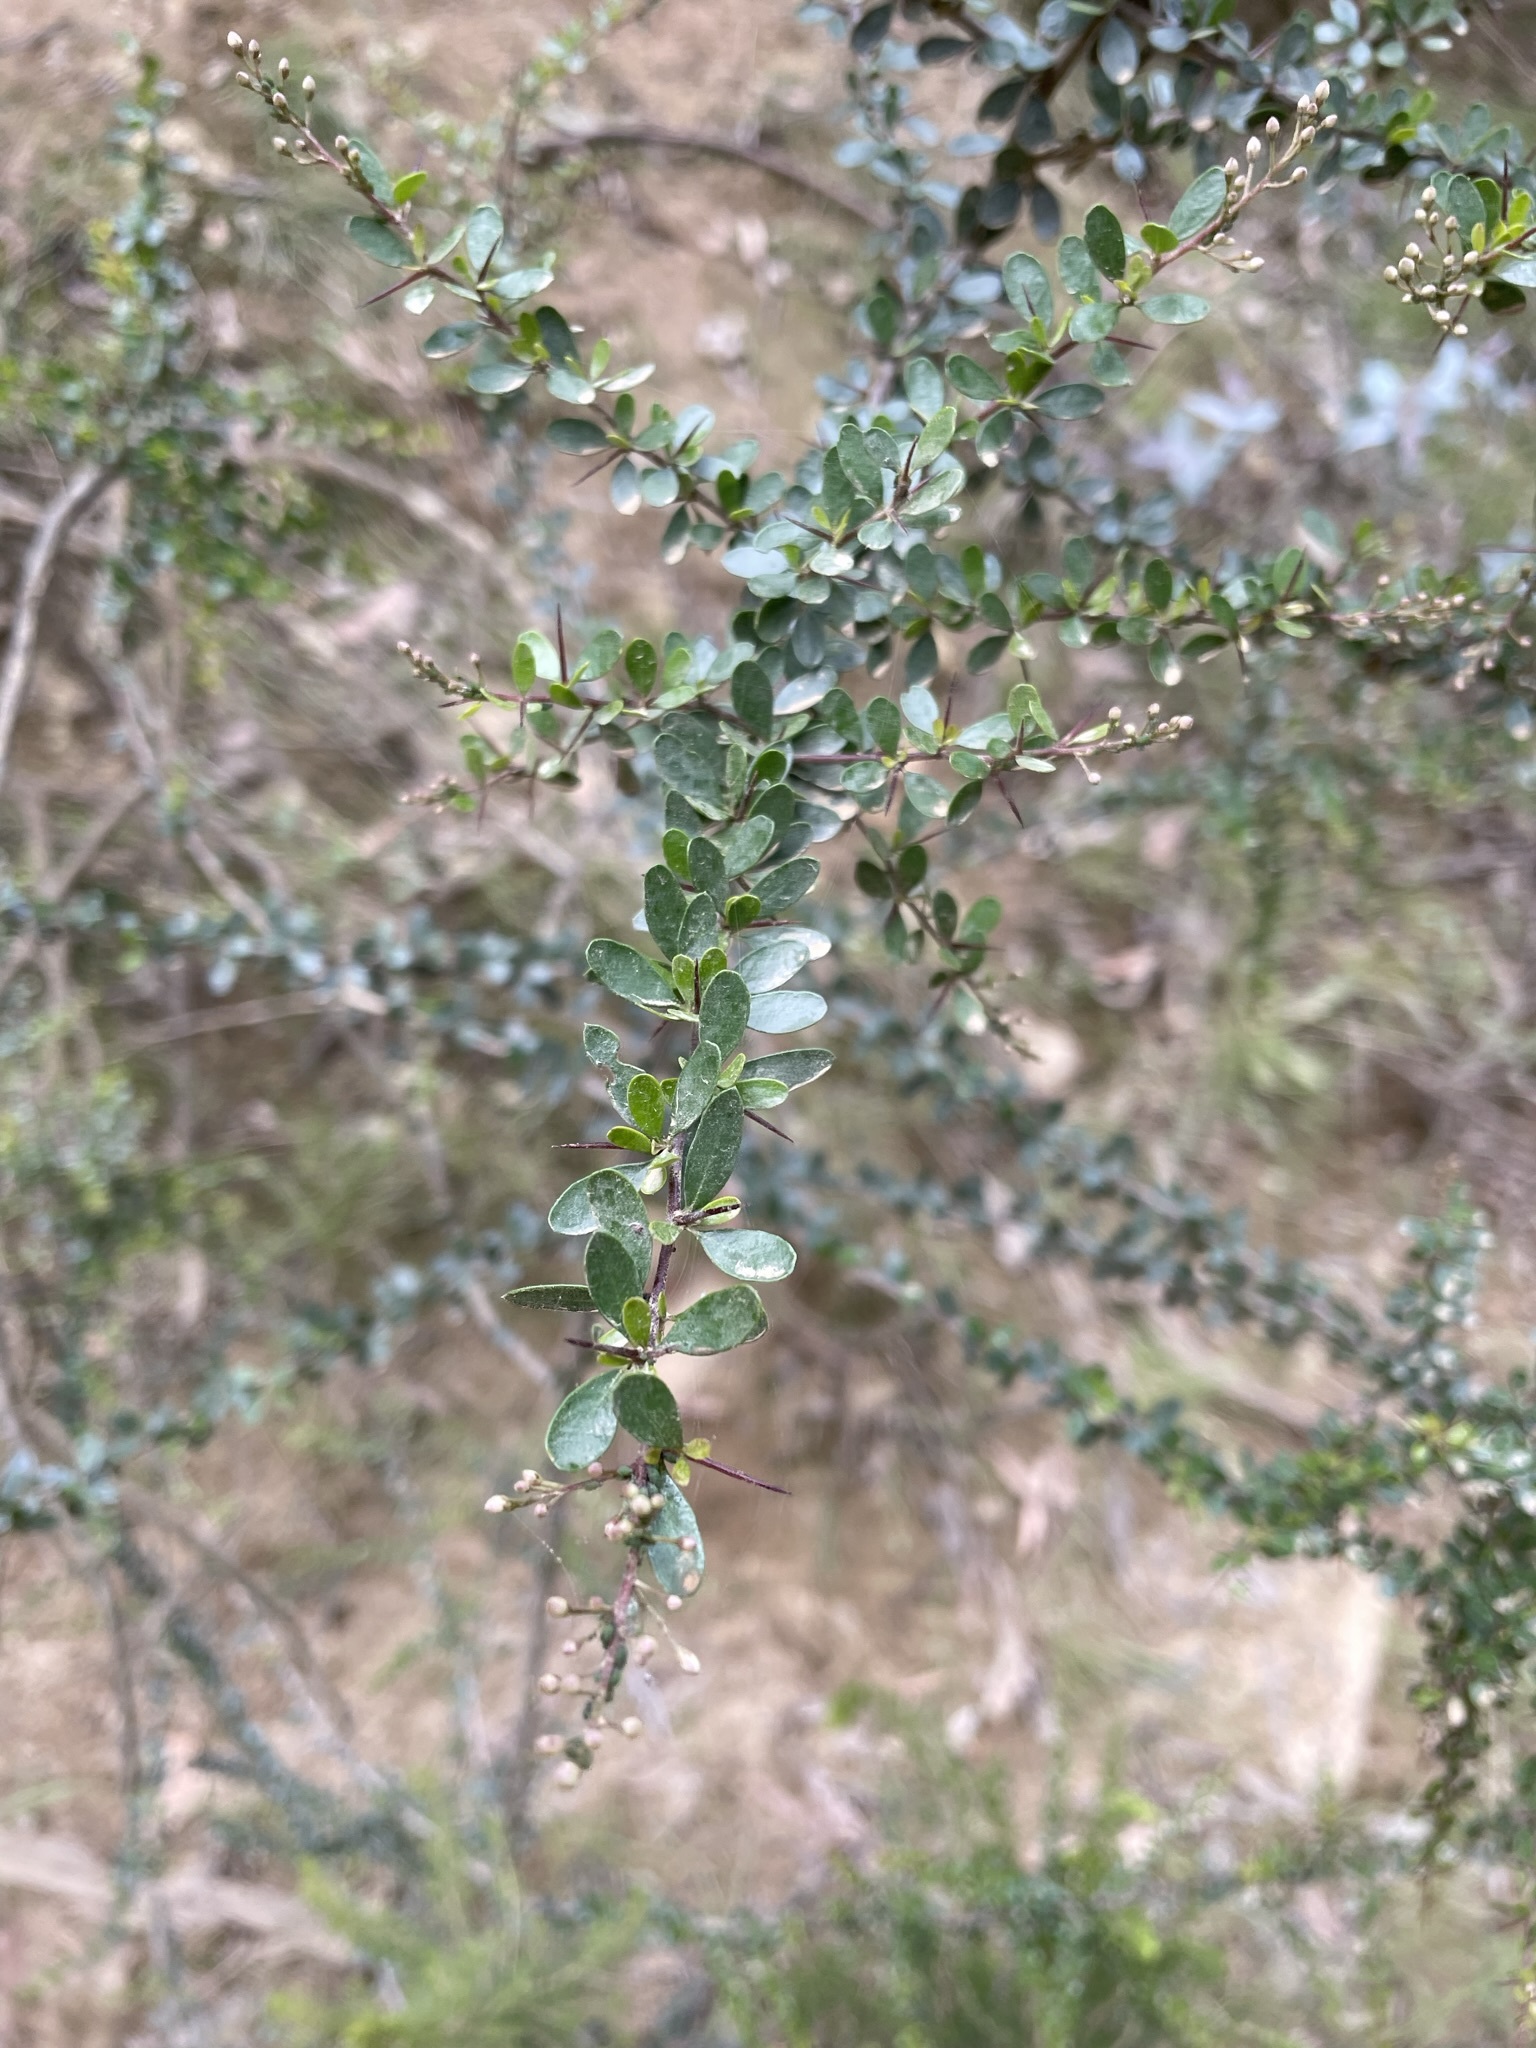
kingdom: Plantae
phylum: Tracheophyta
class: Magnoliopsida
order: Apiales
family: Pittosporaceae
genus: Bursaria
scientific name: Bursaria spinosa
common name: Australian blackthorn
